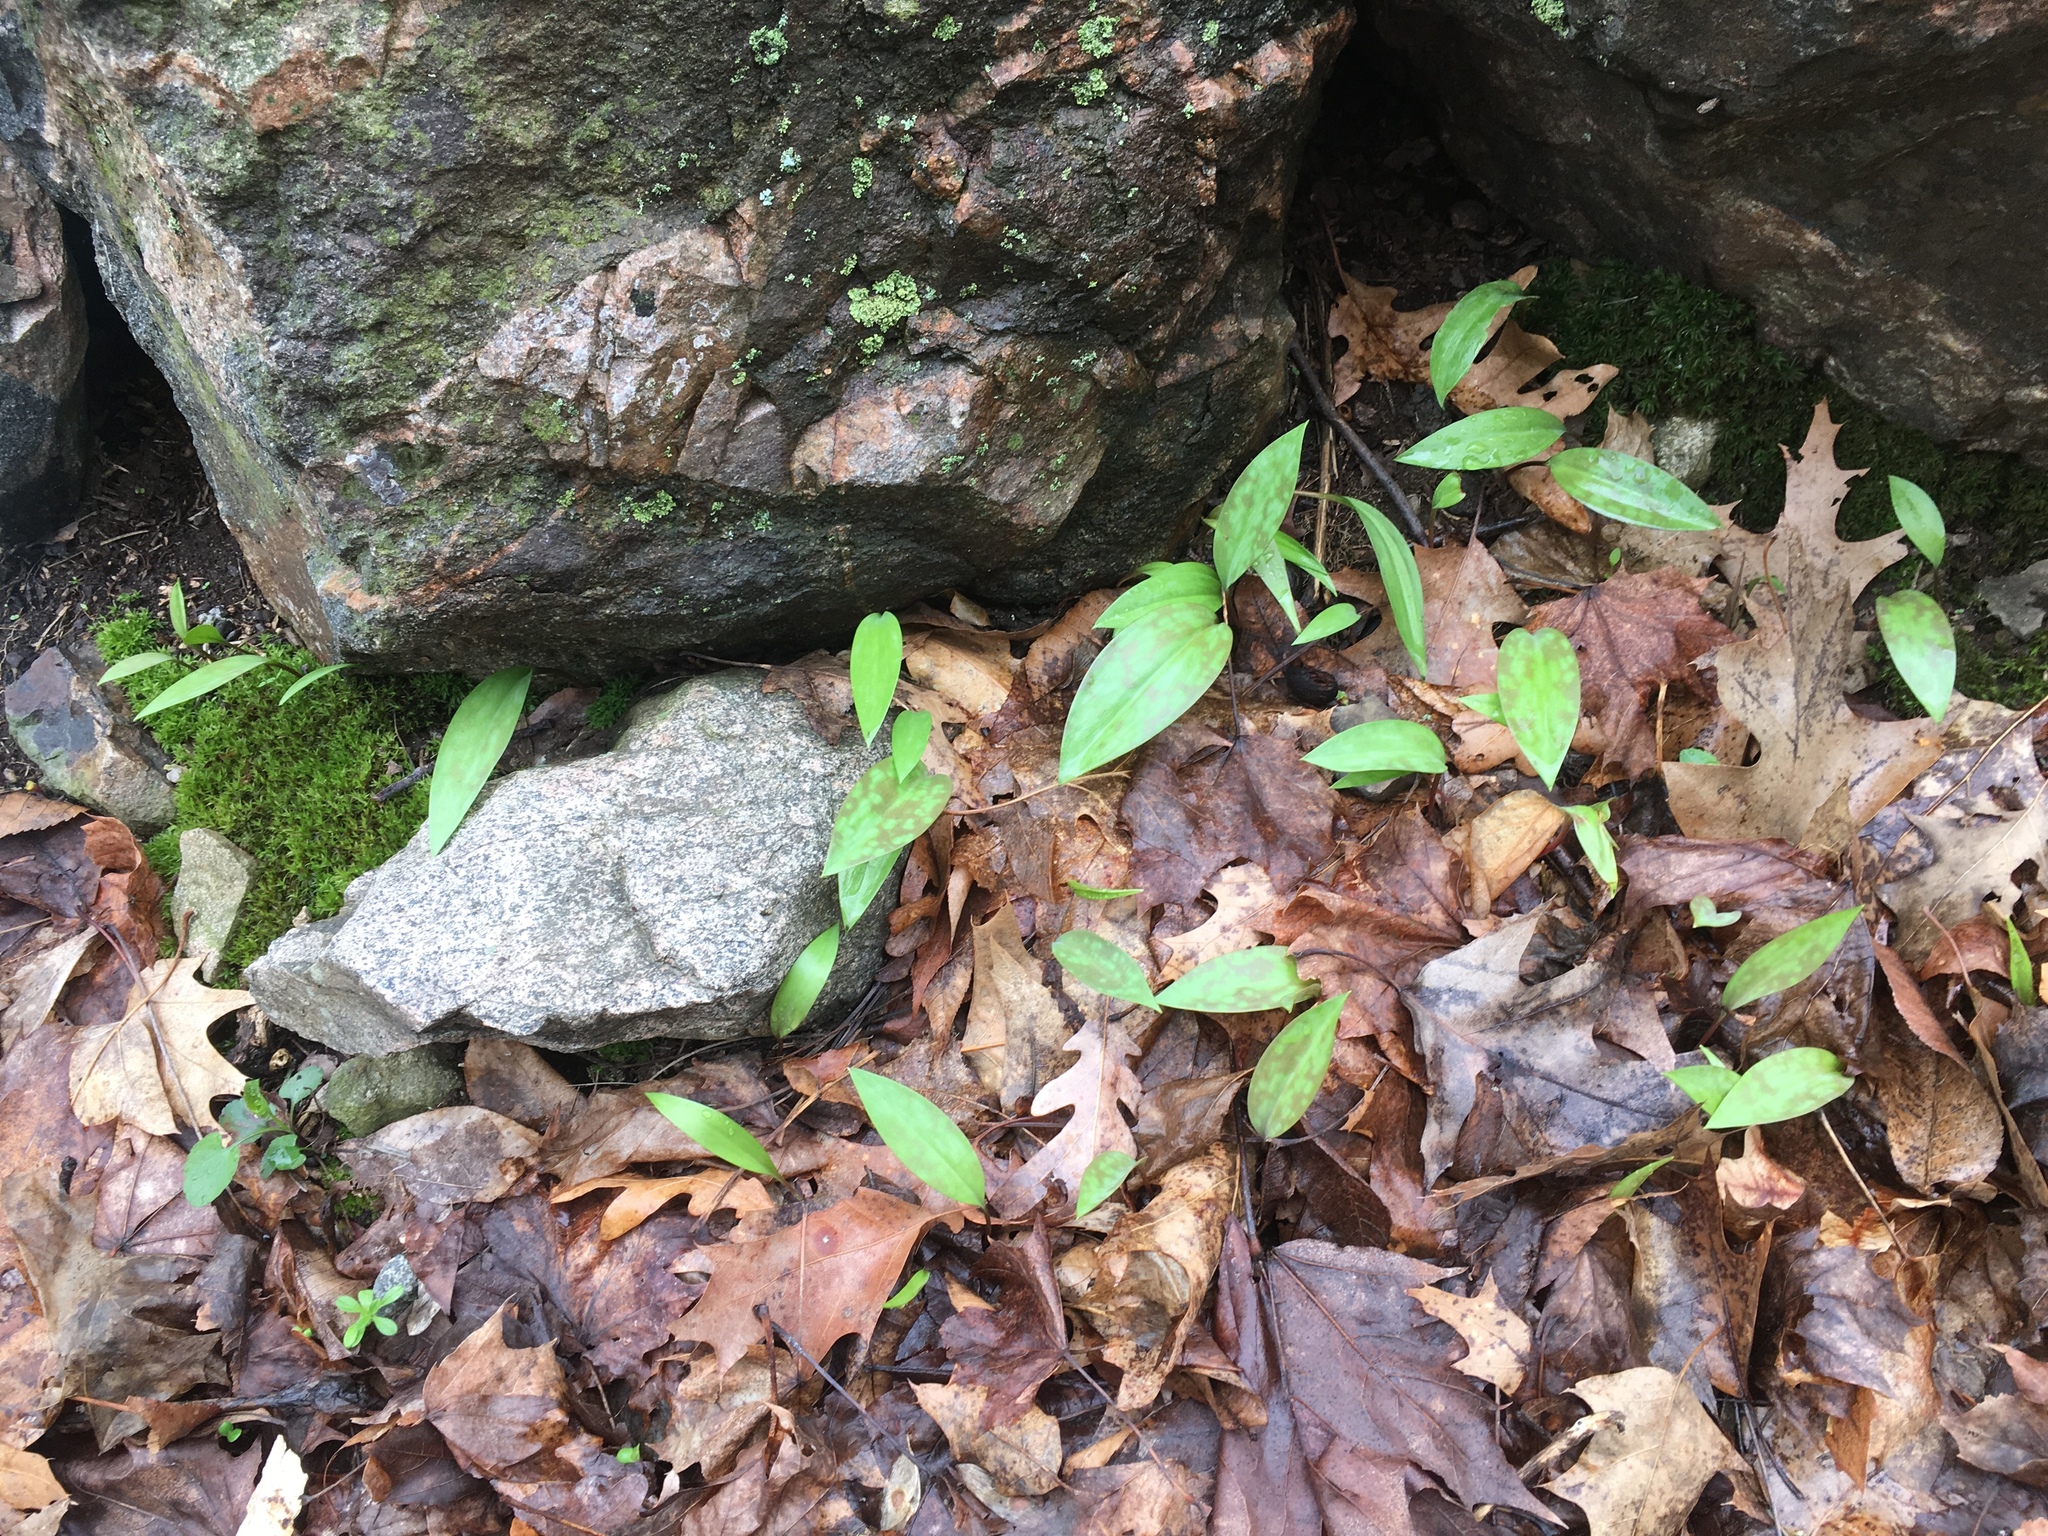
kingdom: Plantae
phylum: Tracheophyta
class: Liliopsida
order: Liliales
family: Liliaceae
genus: Erythronium
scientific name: Erythronium americanum
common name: Yellow adder's-tongue
